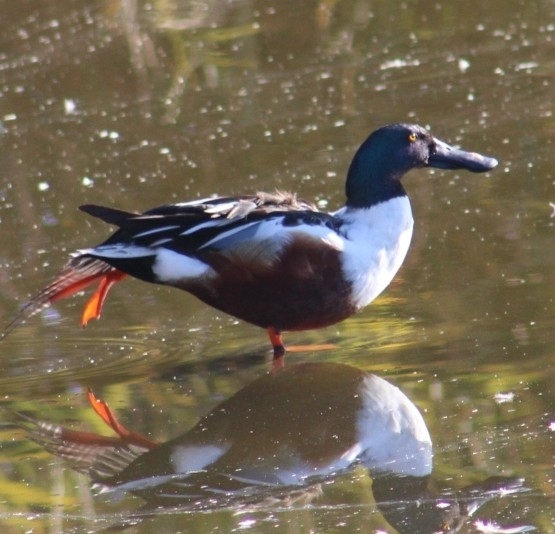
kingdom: Animalia
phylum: Chordata
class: Aves
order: Anseriformes
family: Anatidae
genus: Spatula
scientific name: Spatula clypeata
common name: Northern shoveler
